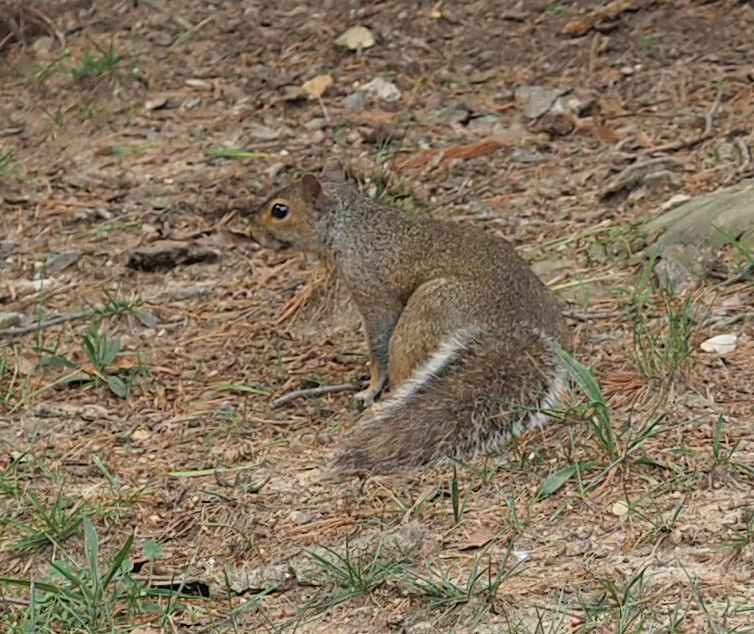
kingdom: Animalia
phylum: Chordata
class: Mammalia
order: Rodentia
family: Sciuridae
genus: Sciurus
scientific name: Sciurus carolinensis
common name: Eastern gray squirrel
